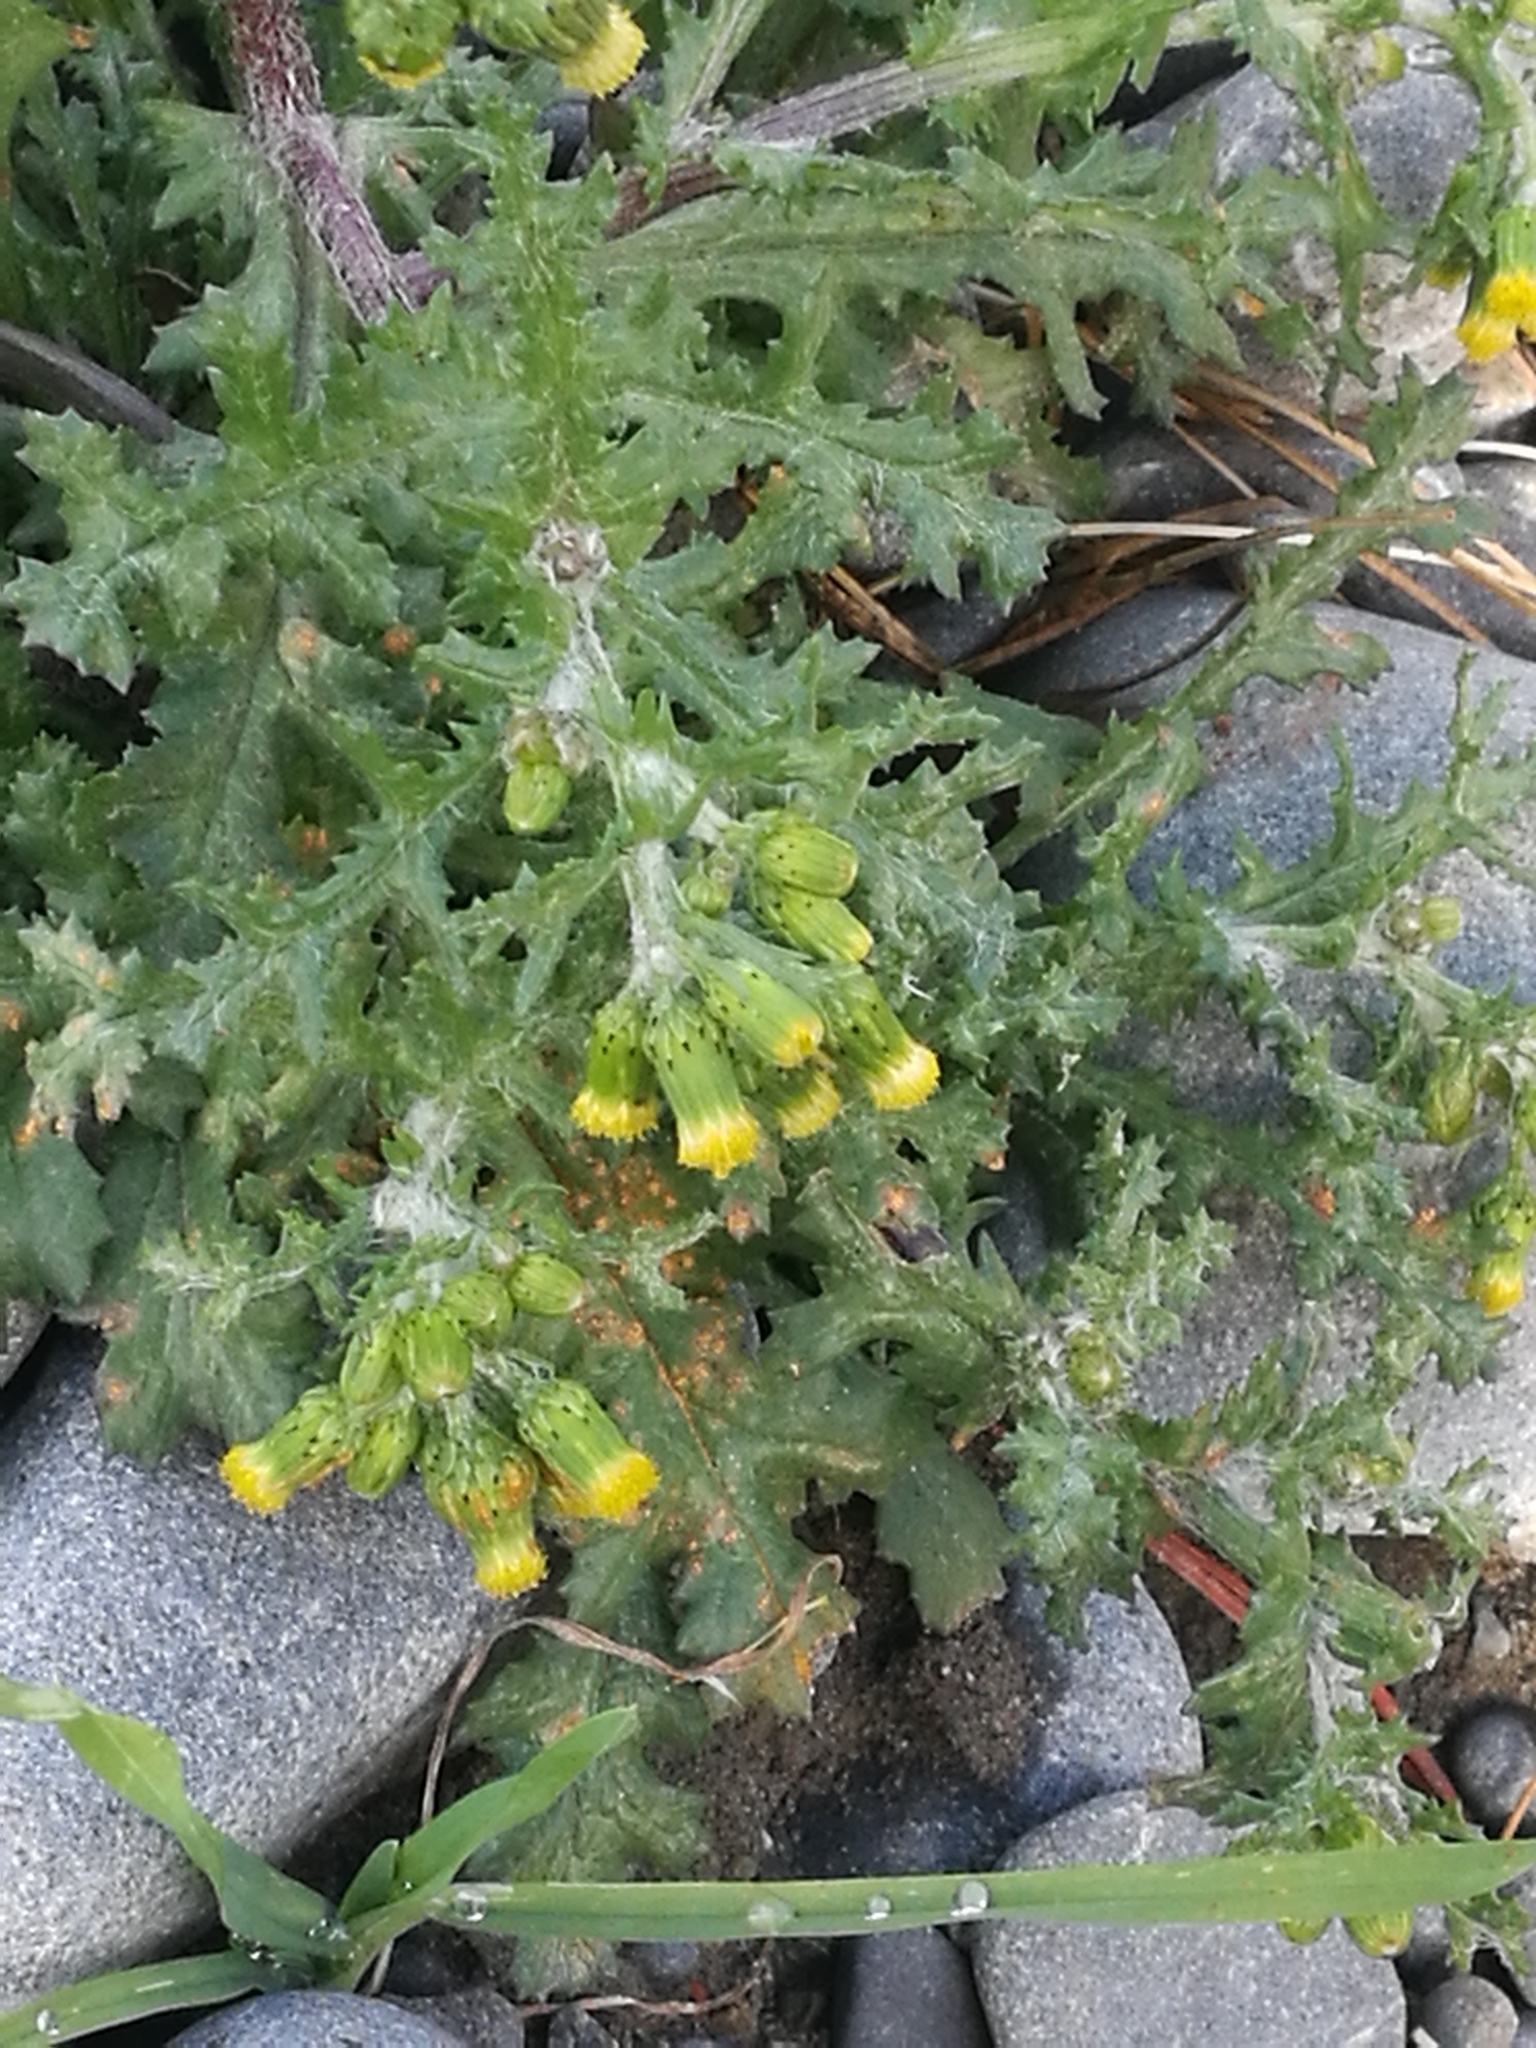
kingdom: Plantae
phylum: Tracheophyta
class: Magnoliopsida
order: Asterales
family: Asteraceae
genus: Senecio
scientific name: Senecio vulgaris
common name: Old-man-in-the-spring
